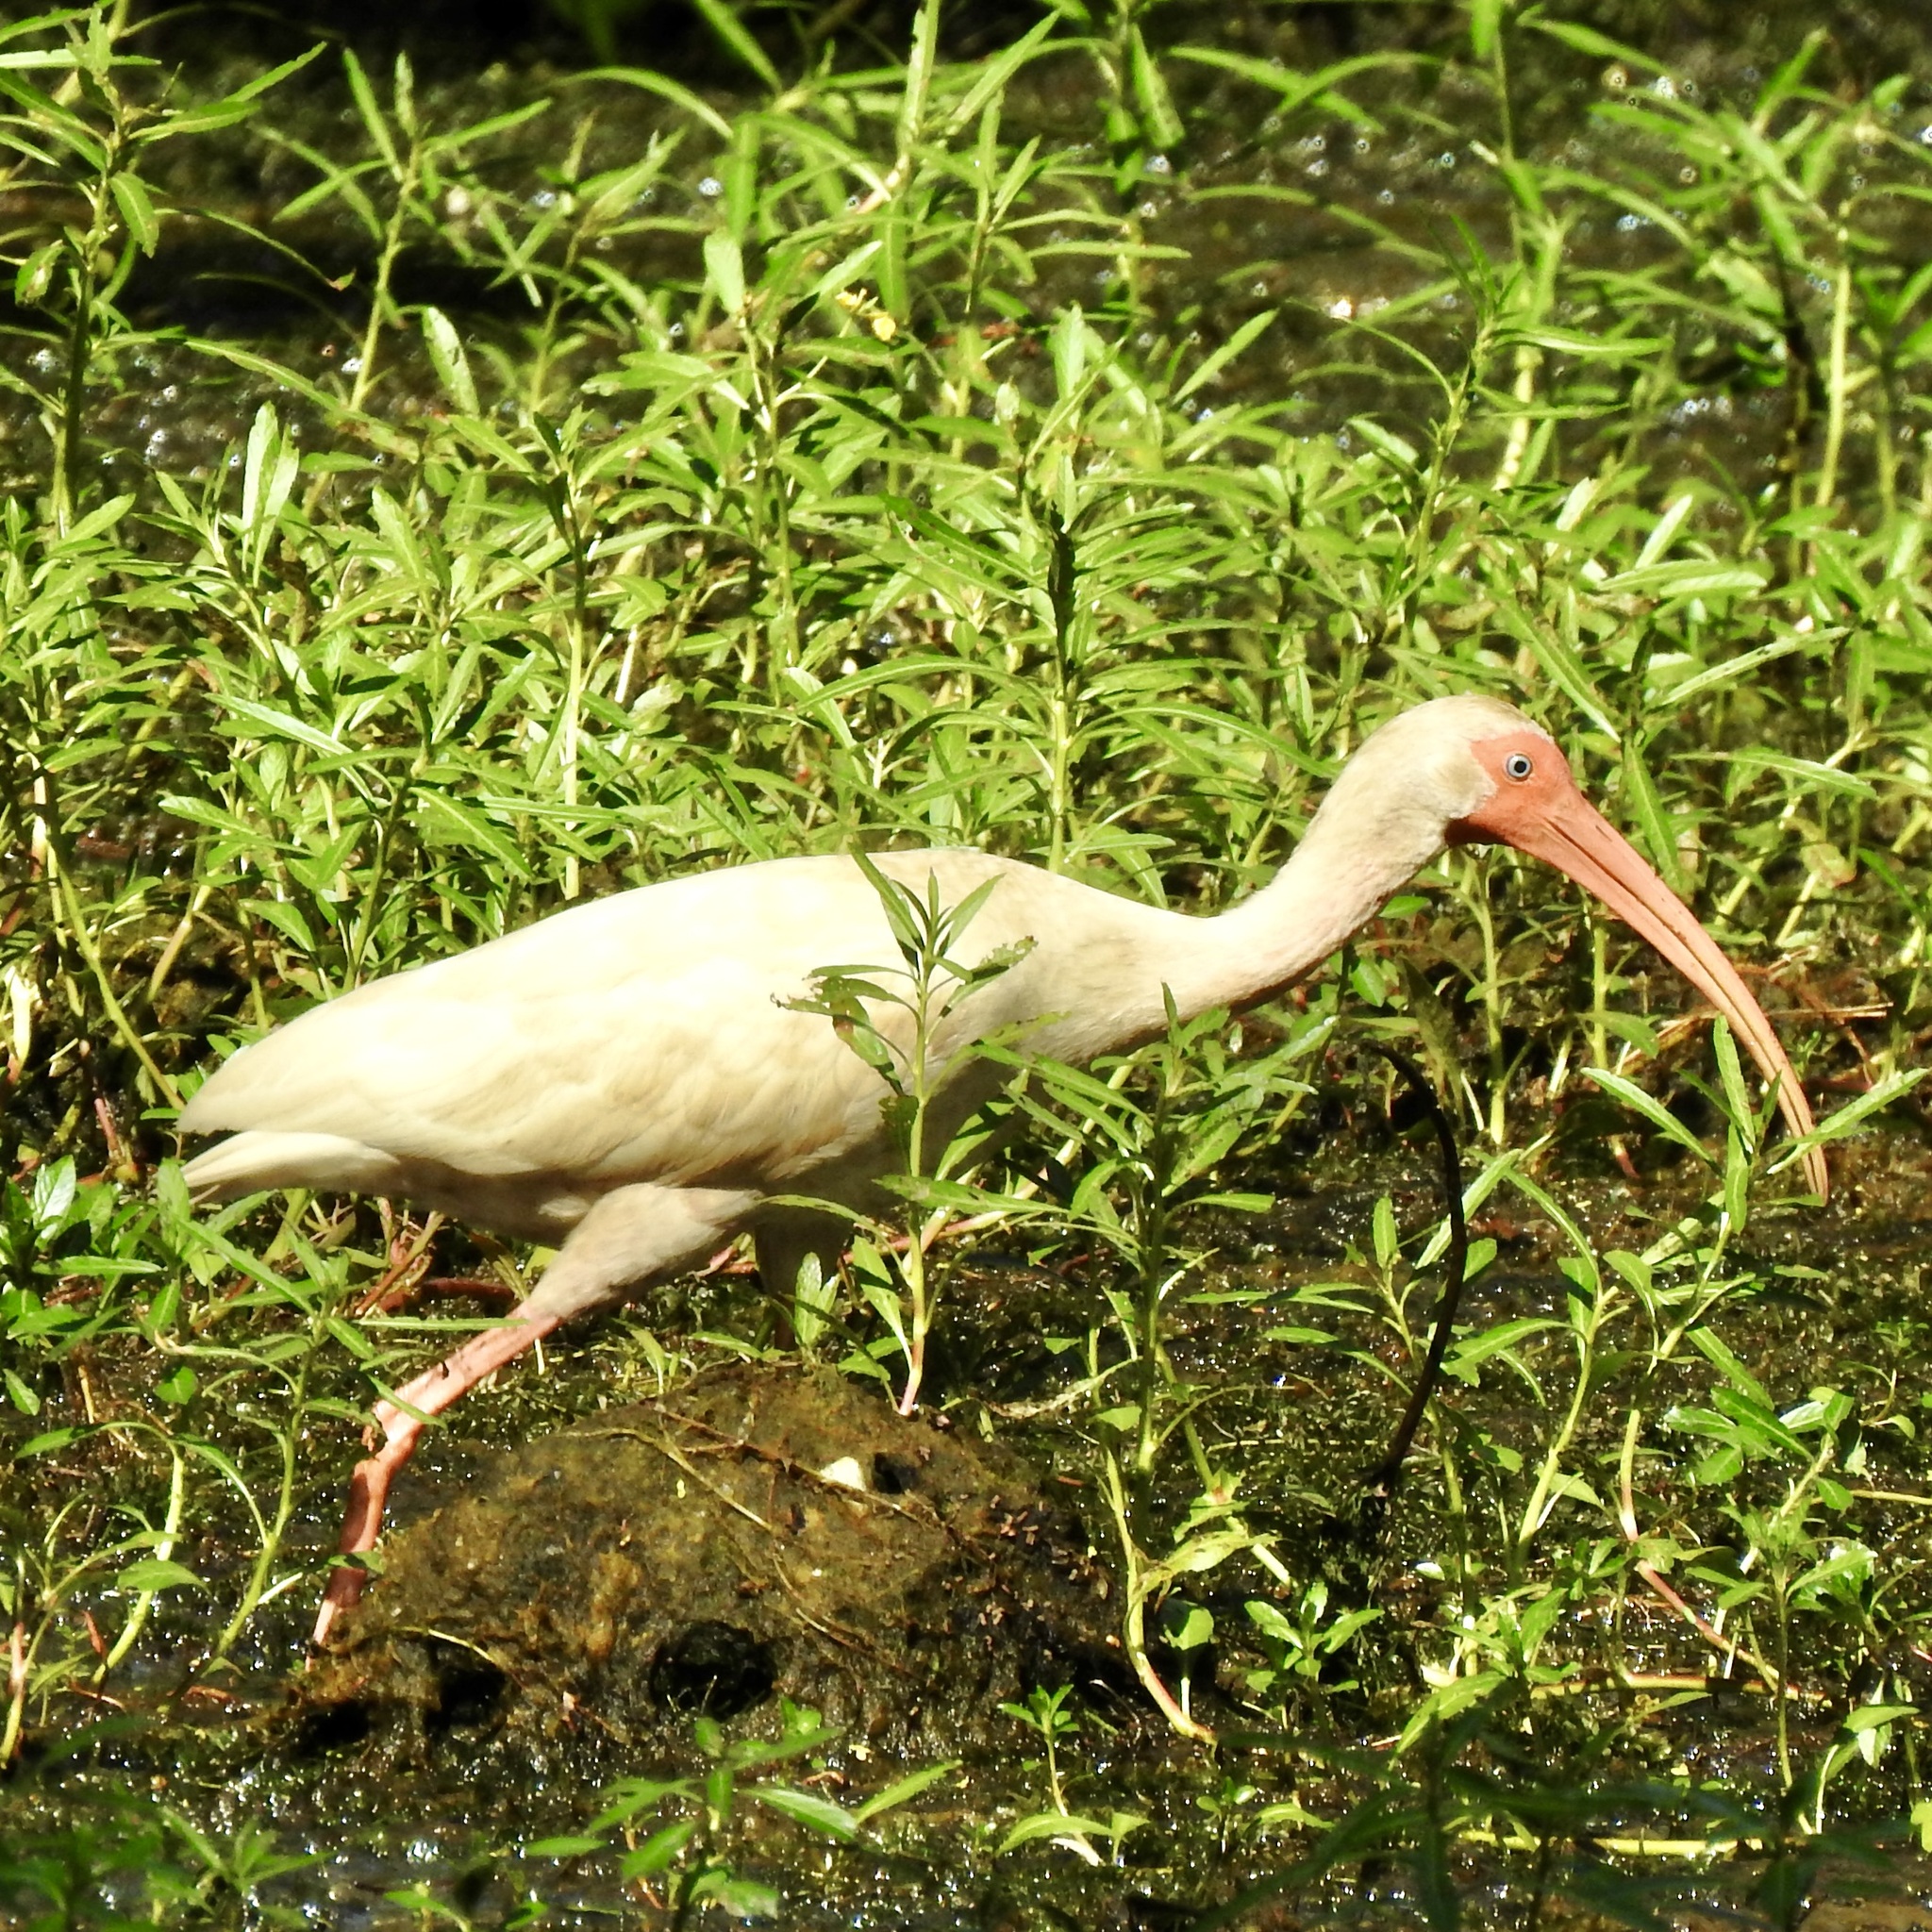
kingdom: Animalia
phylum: Chordata
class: Aves
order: Pelecaniformes
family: Threskiornithidae
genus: Eudocimus
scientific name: Eudocimus albus
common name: White ibis
